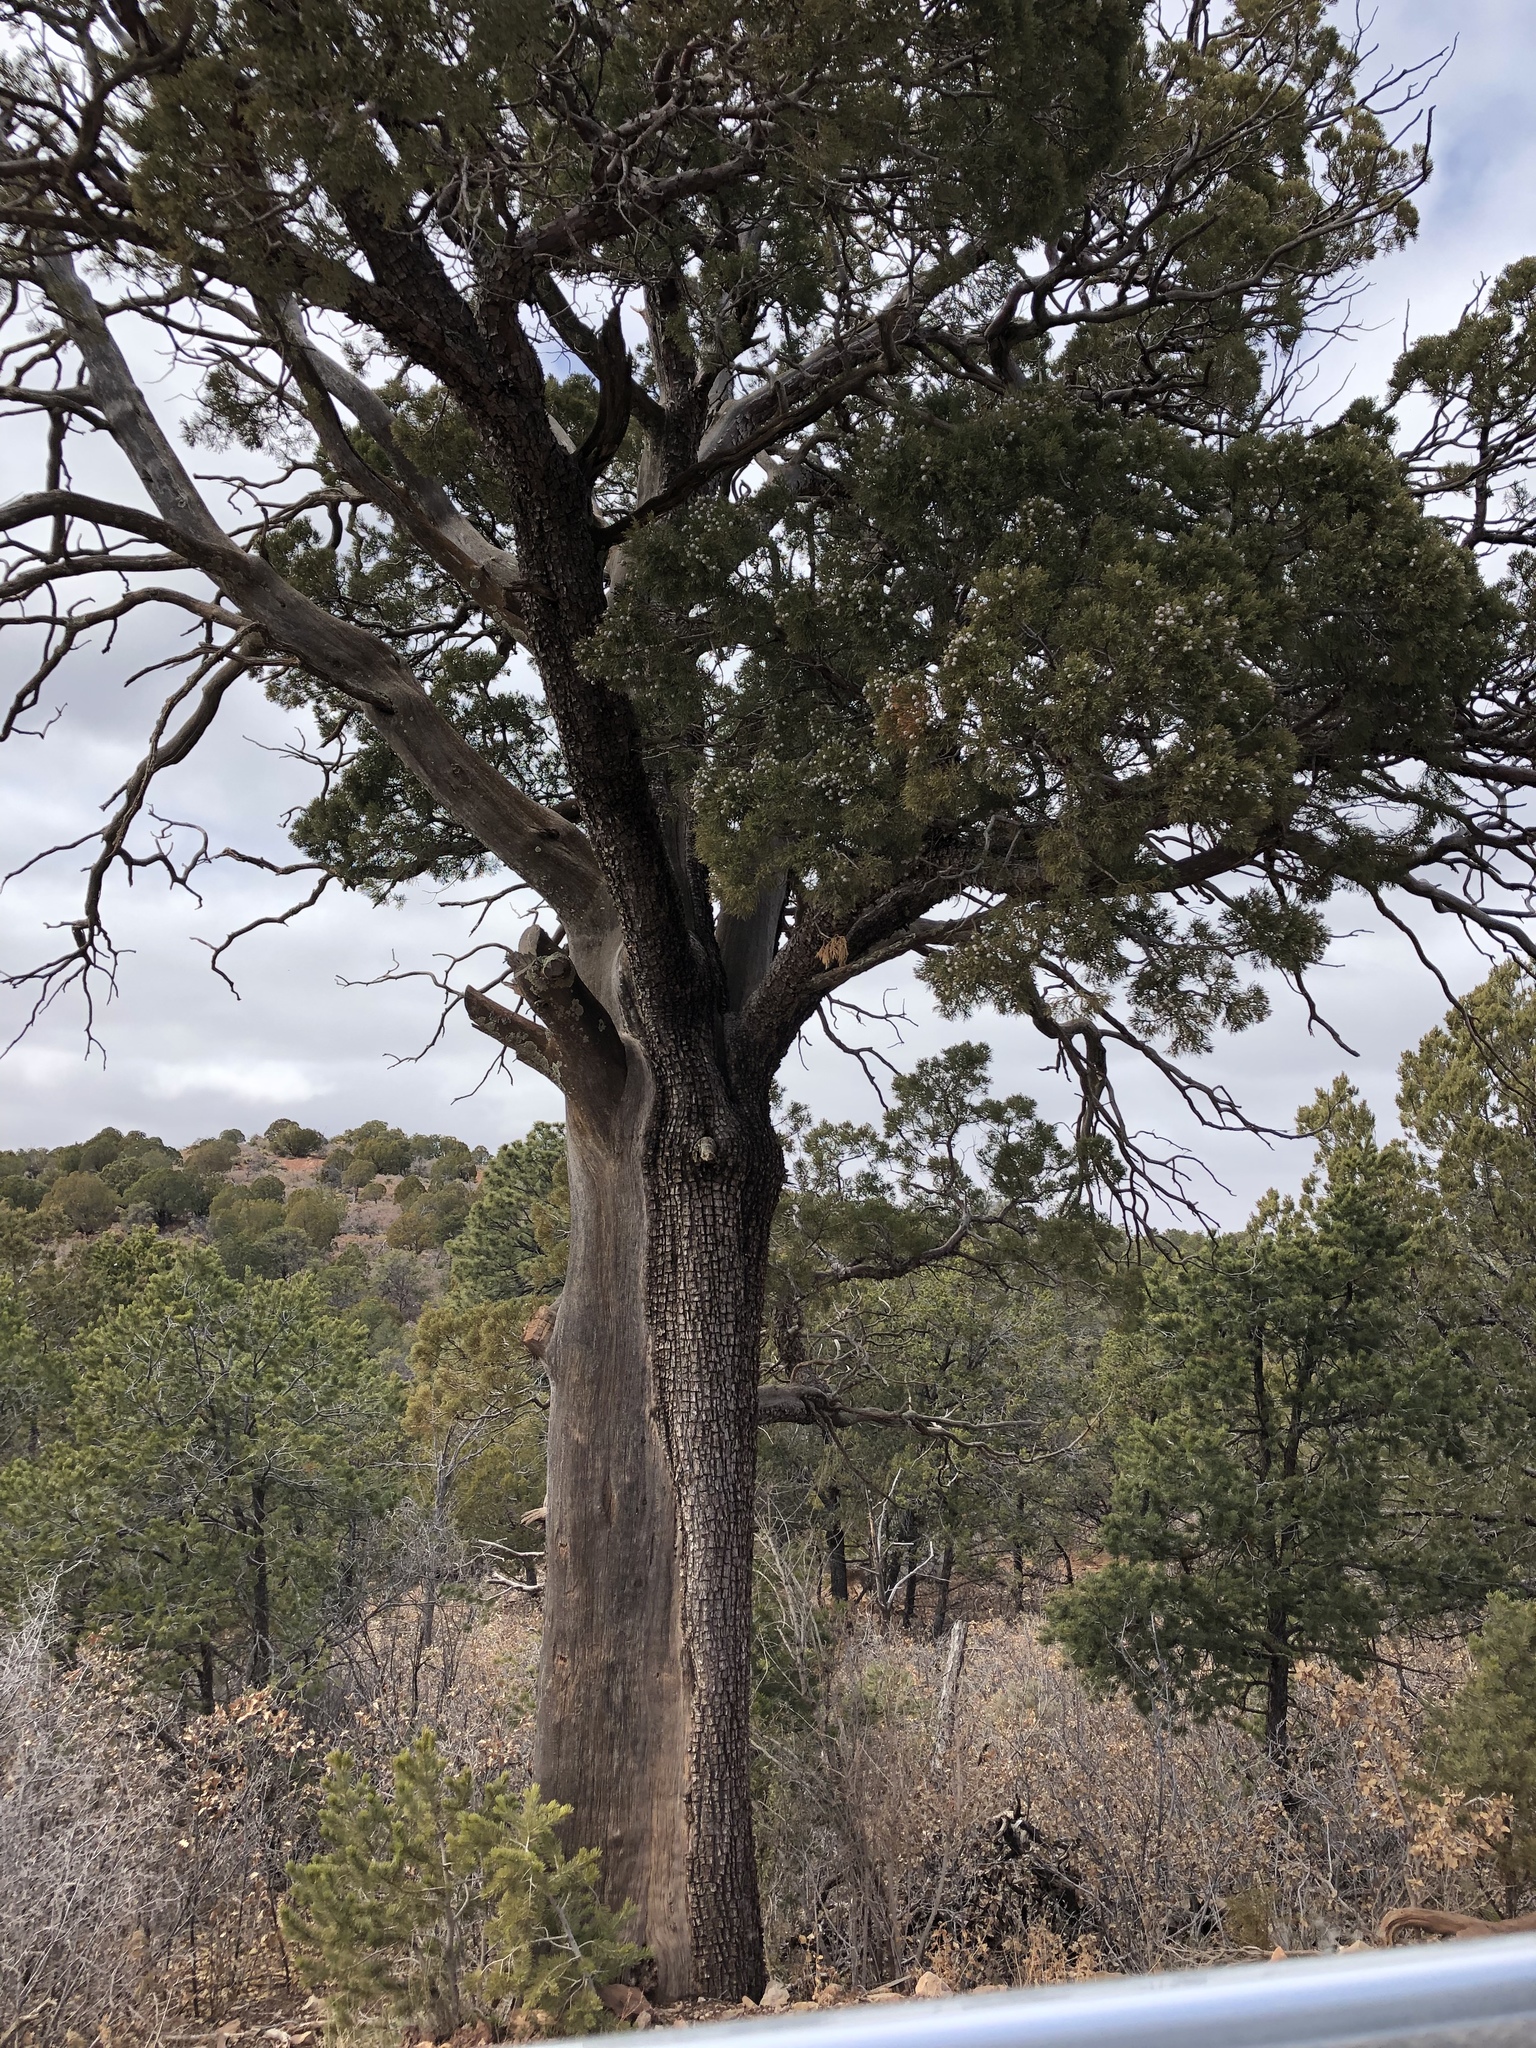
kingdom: Plantae
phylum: Tracheophyta
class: Pinopsida
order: Pinales
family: Cupressaceae
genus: Juniperus
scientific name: Juniperus deppeana
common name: Alligator juniper
